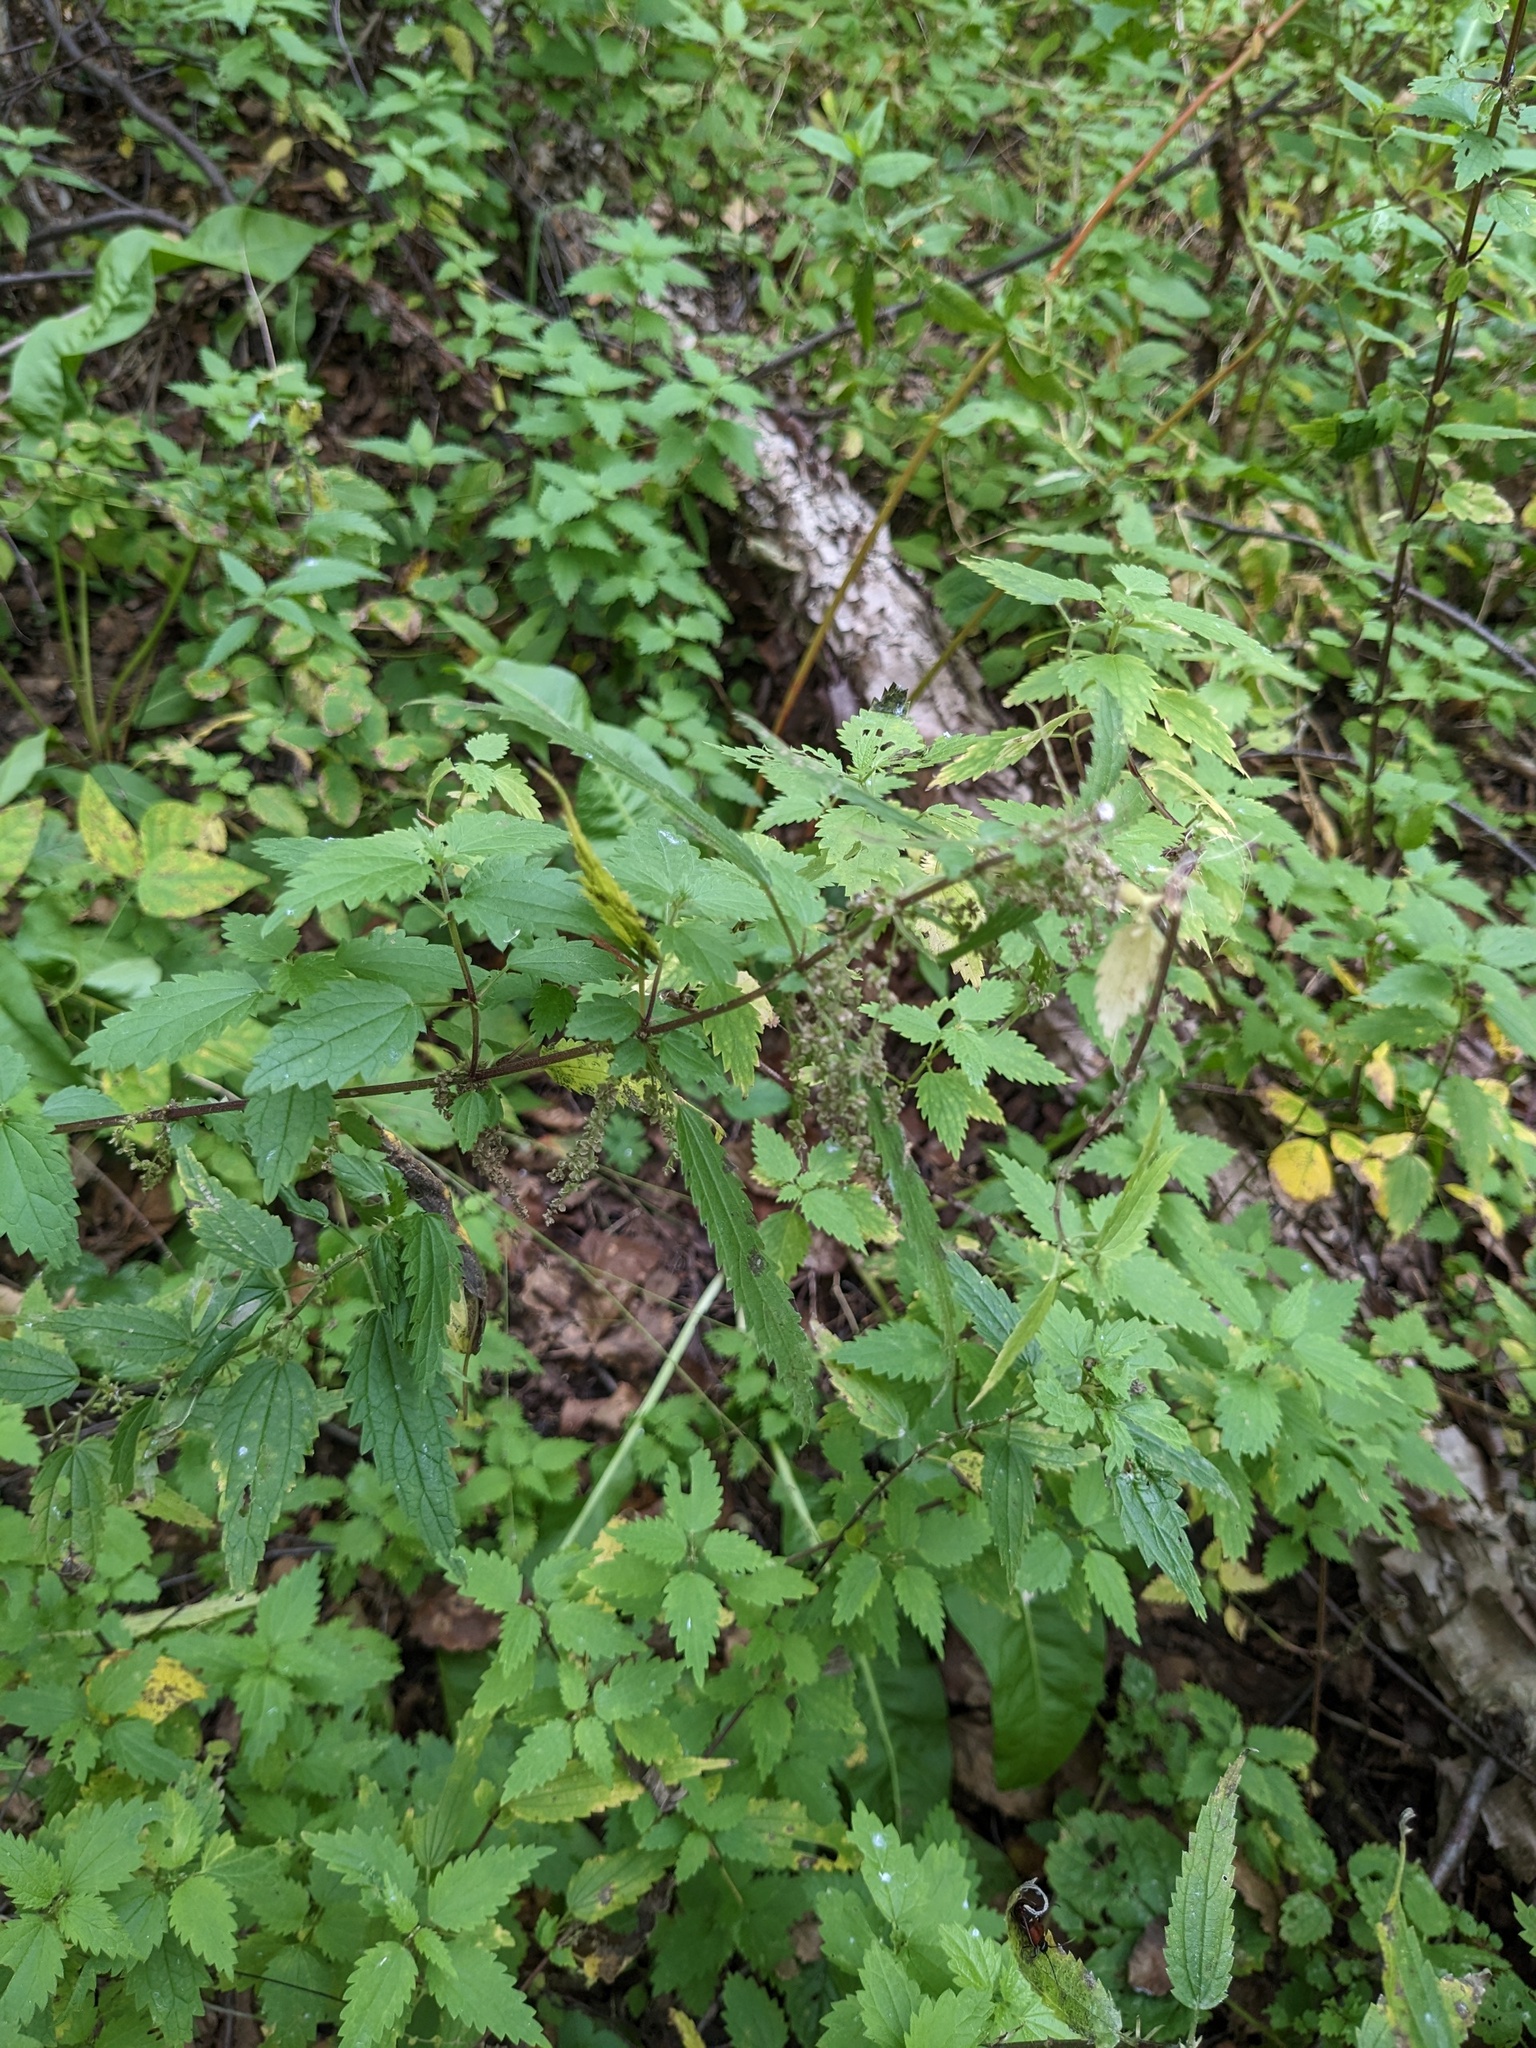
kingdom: Plantae
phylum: Tracheophyta
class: Magnoliopsida
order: Rosales
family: Urticaceae
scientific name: Urticaceae
